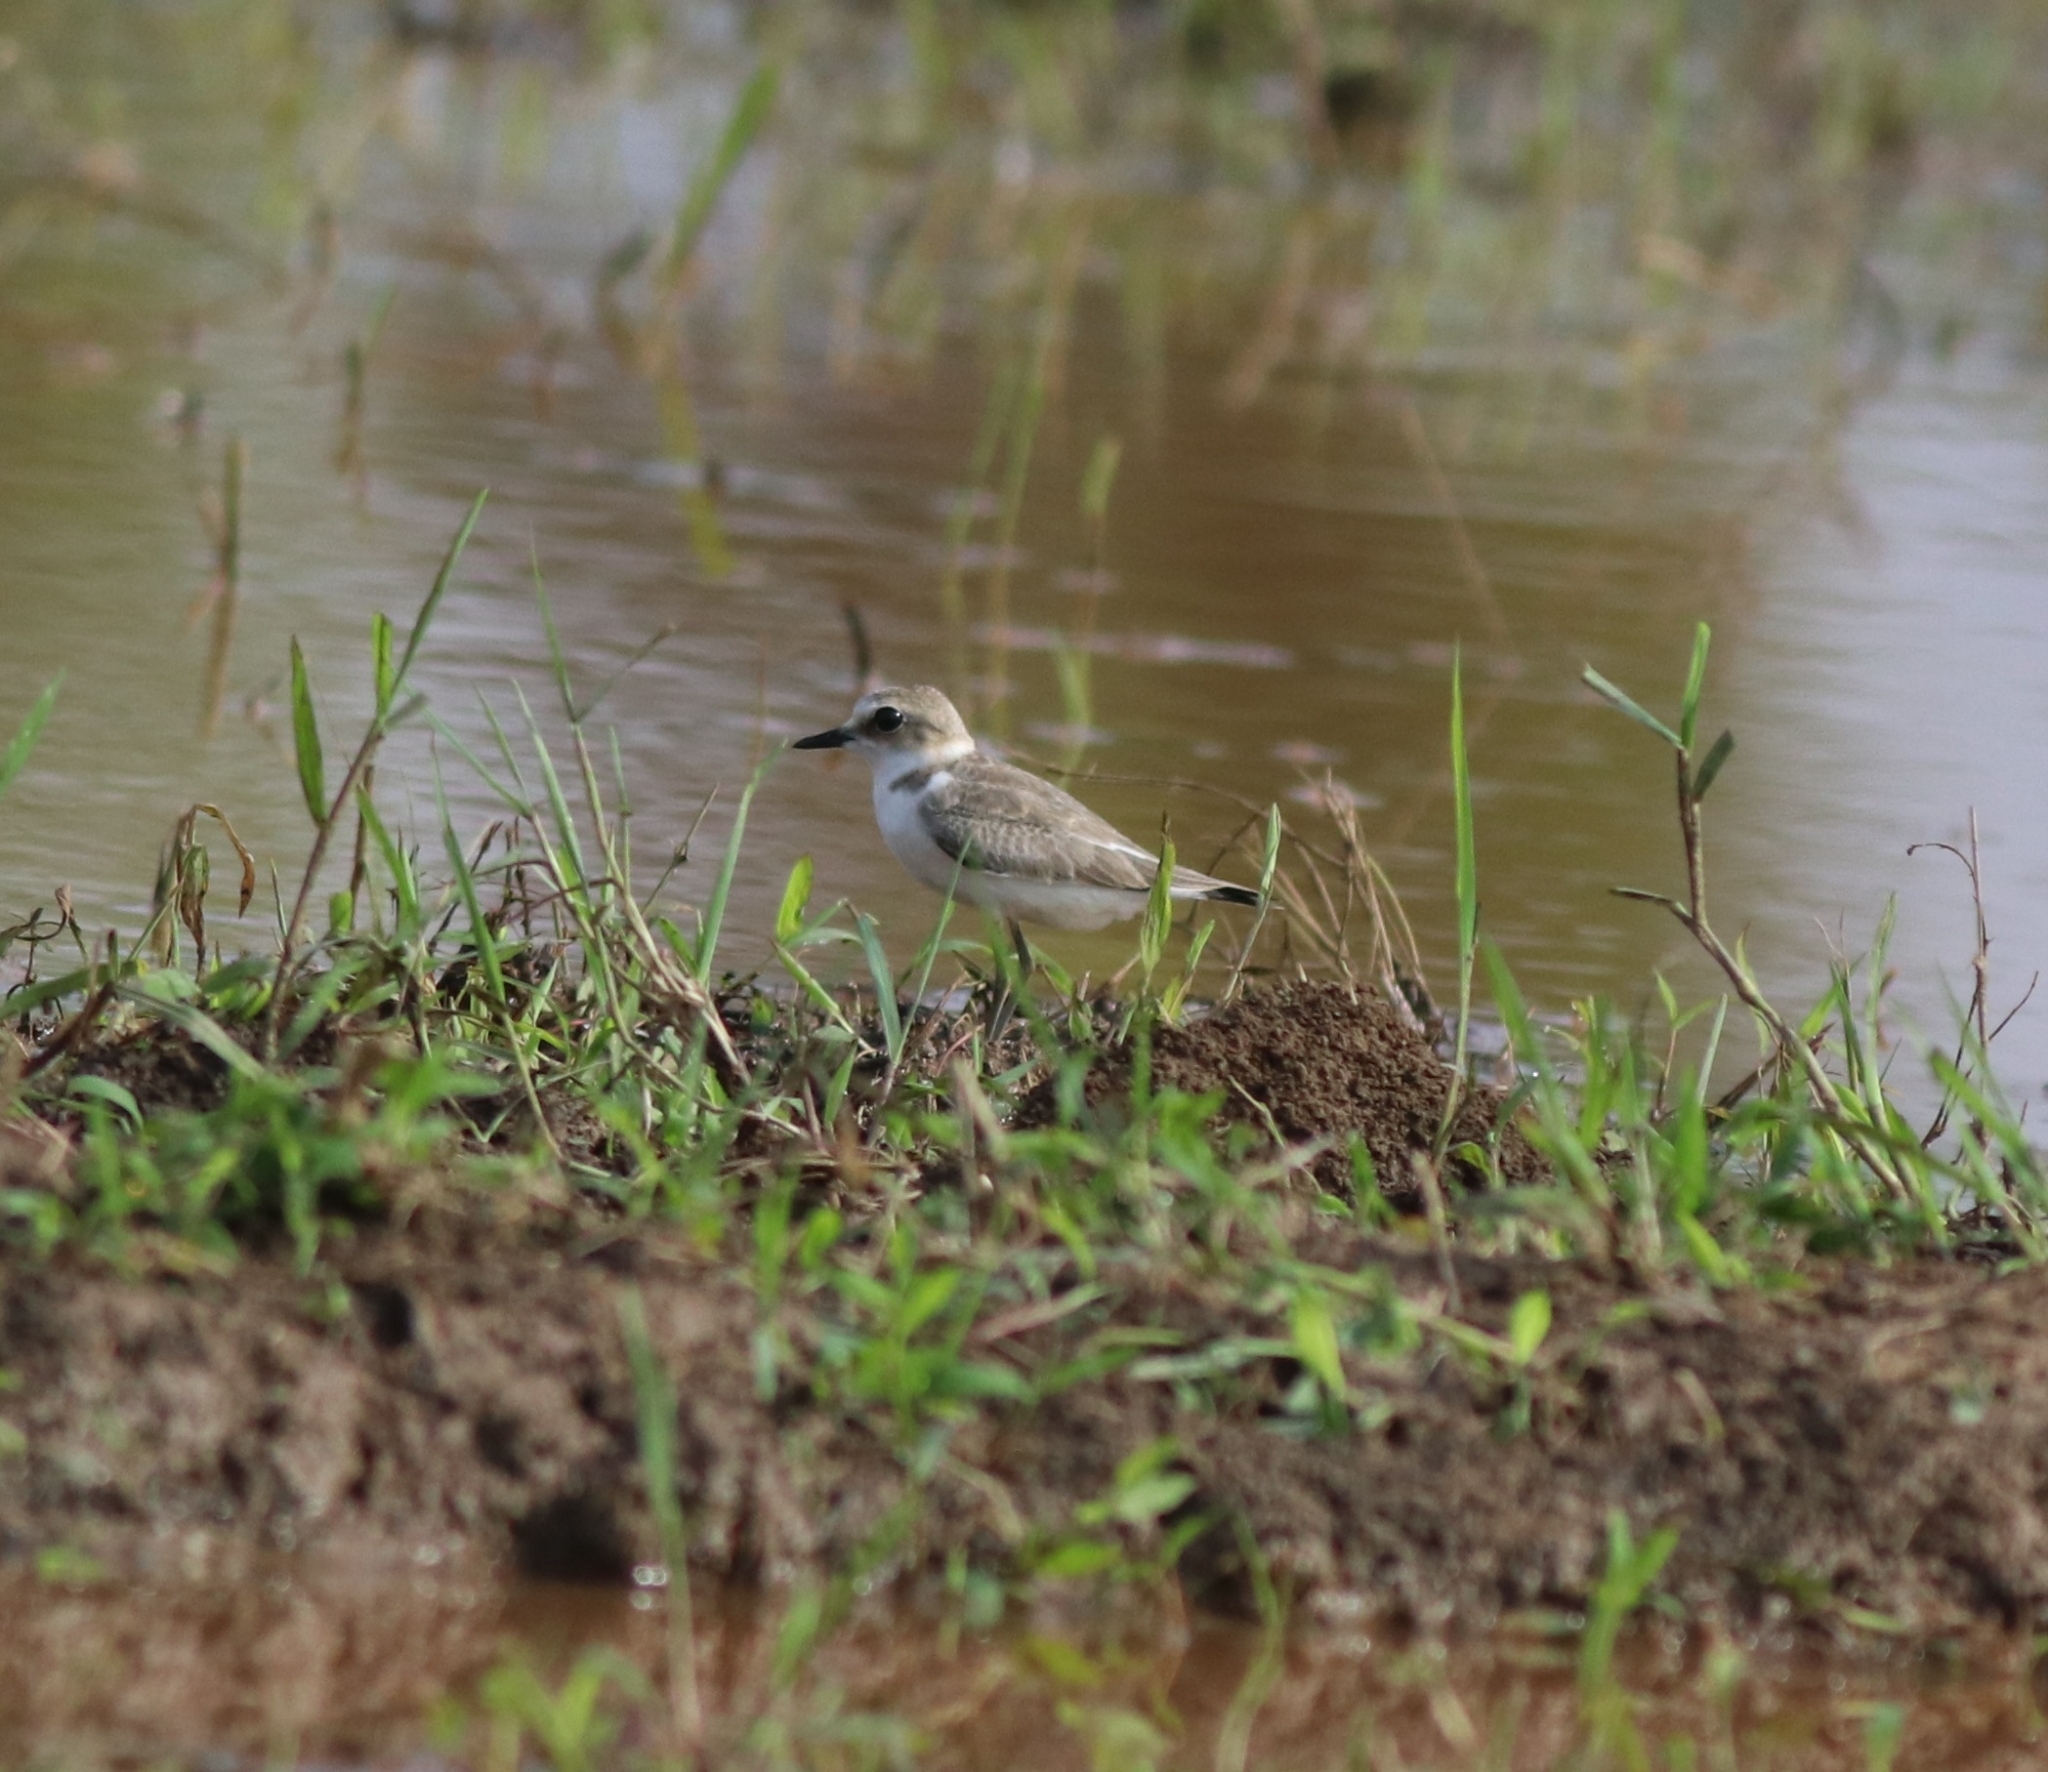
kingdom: Animalia
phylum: Chordata
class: Aves
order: Charadriiformes
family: Charadriidae
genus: Charadrius
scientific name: Charadrius alexandrinus
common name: Kentish plover
